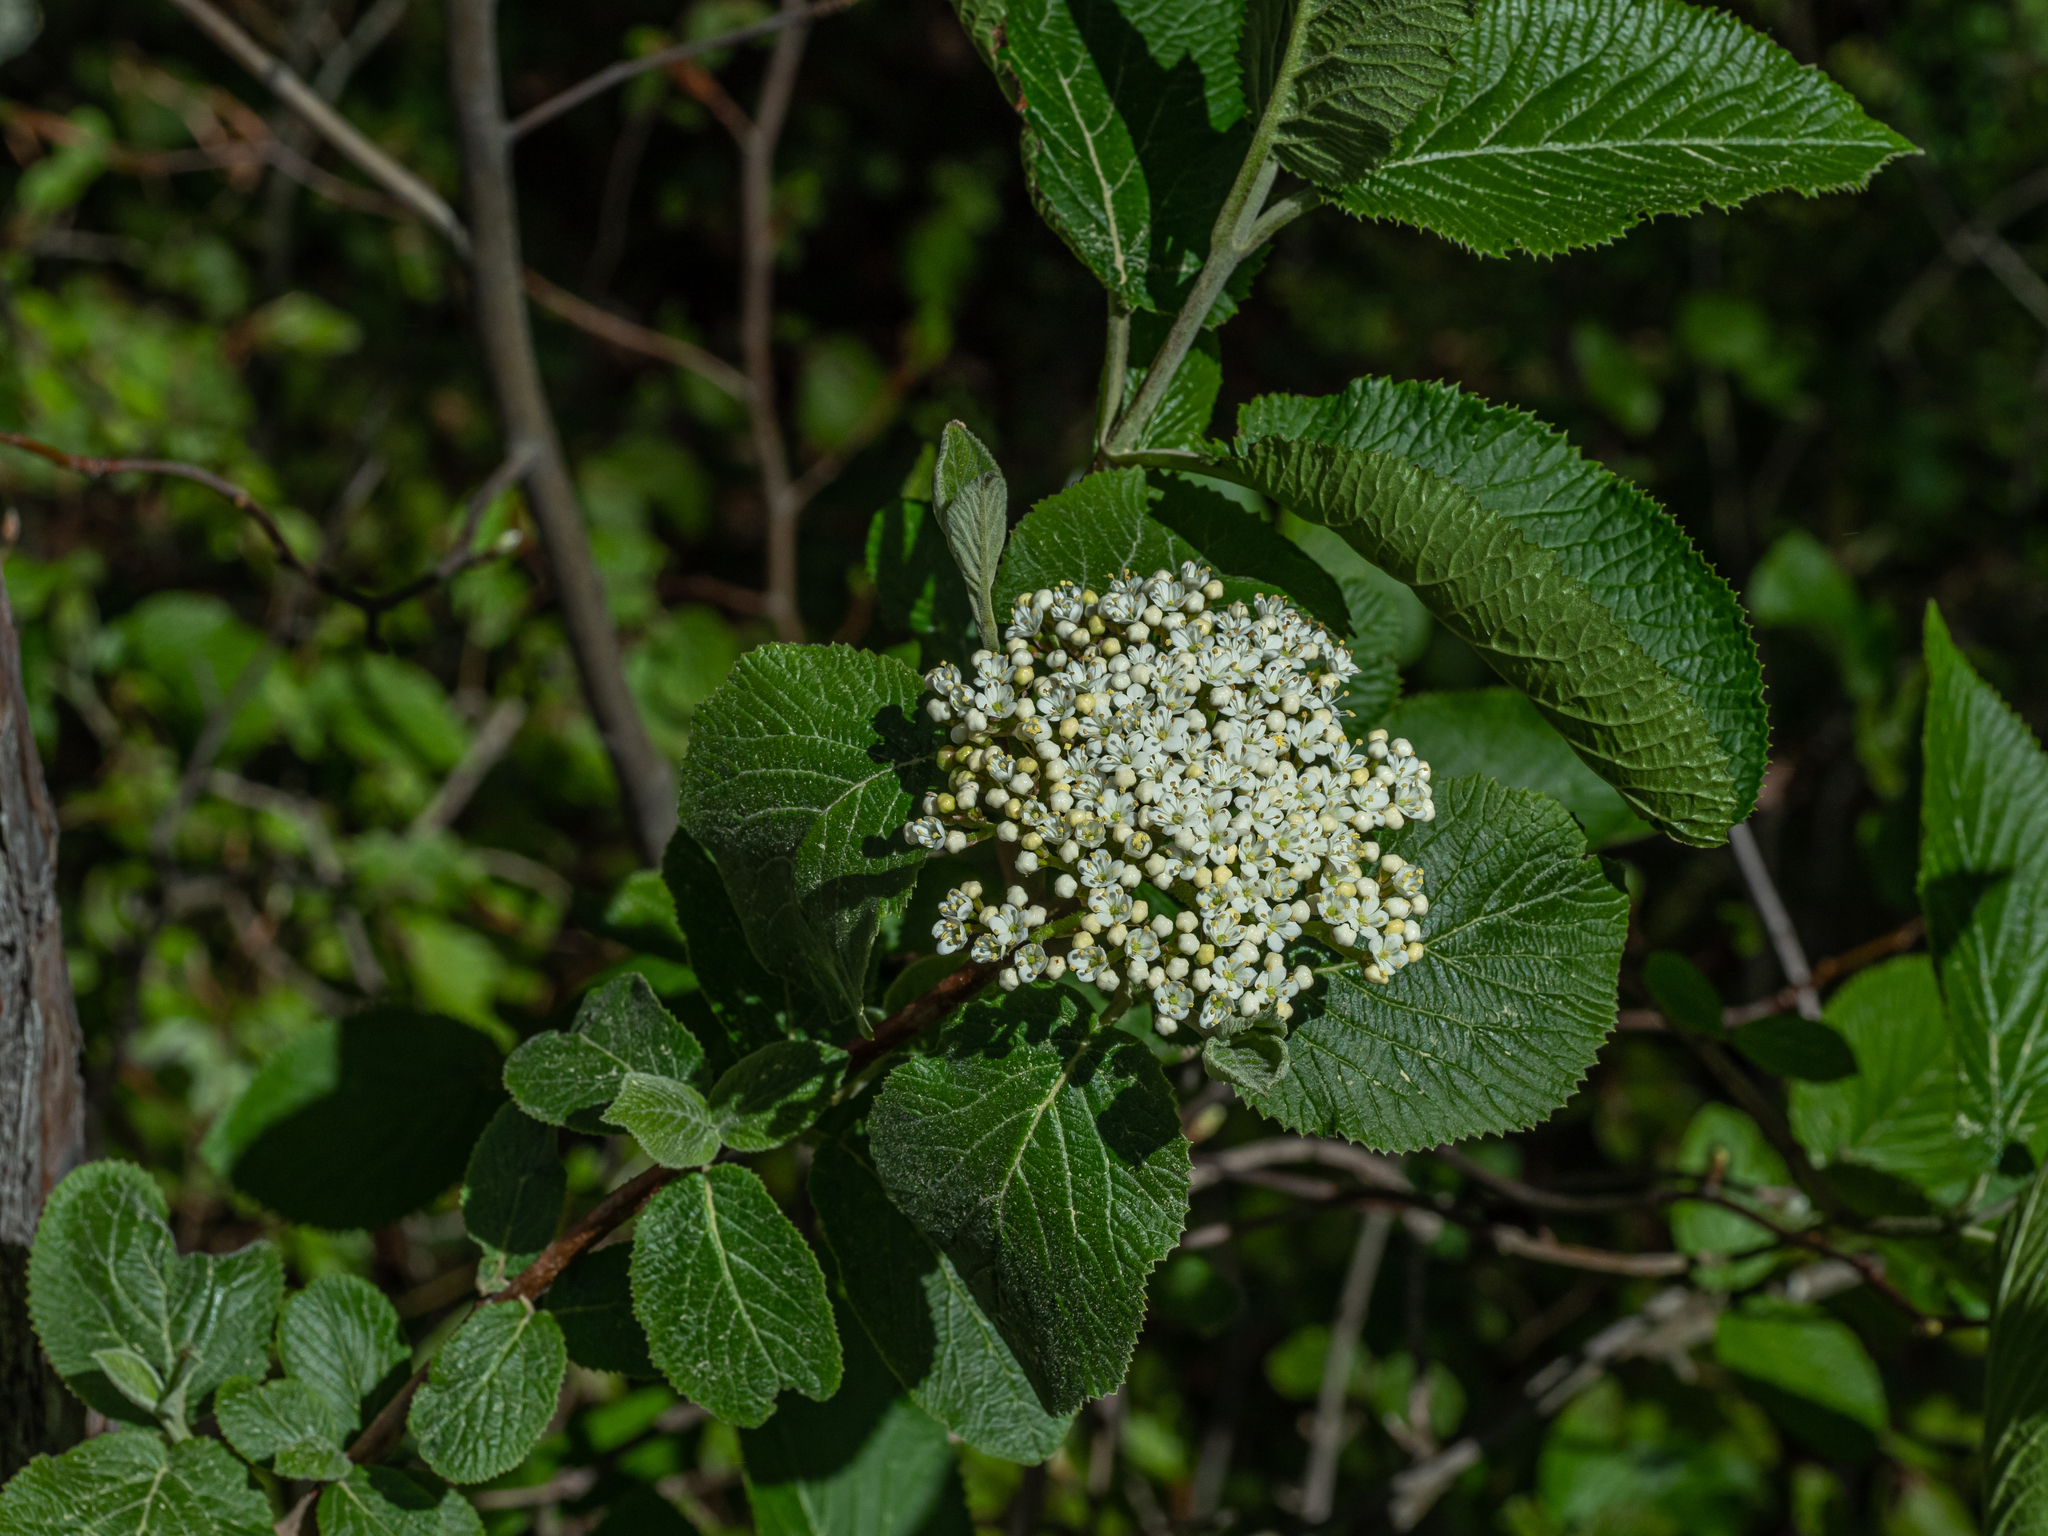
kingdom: Plantae
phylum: Tracheophyta
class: Magnoliopsida
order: Dipsacales
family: Viburnaceae
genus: Viburnum
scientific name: Viburnum lantana
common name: Wayfaring tree
